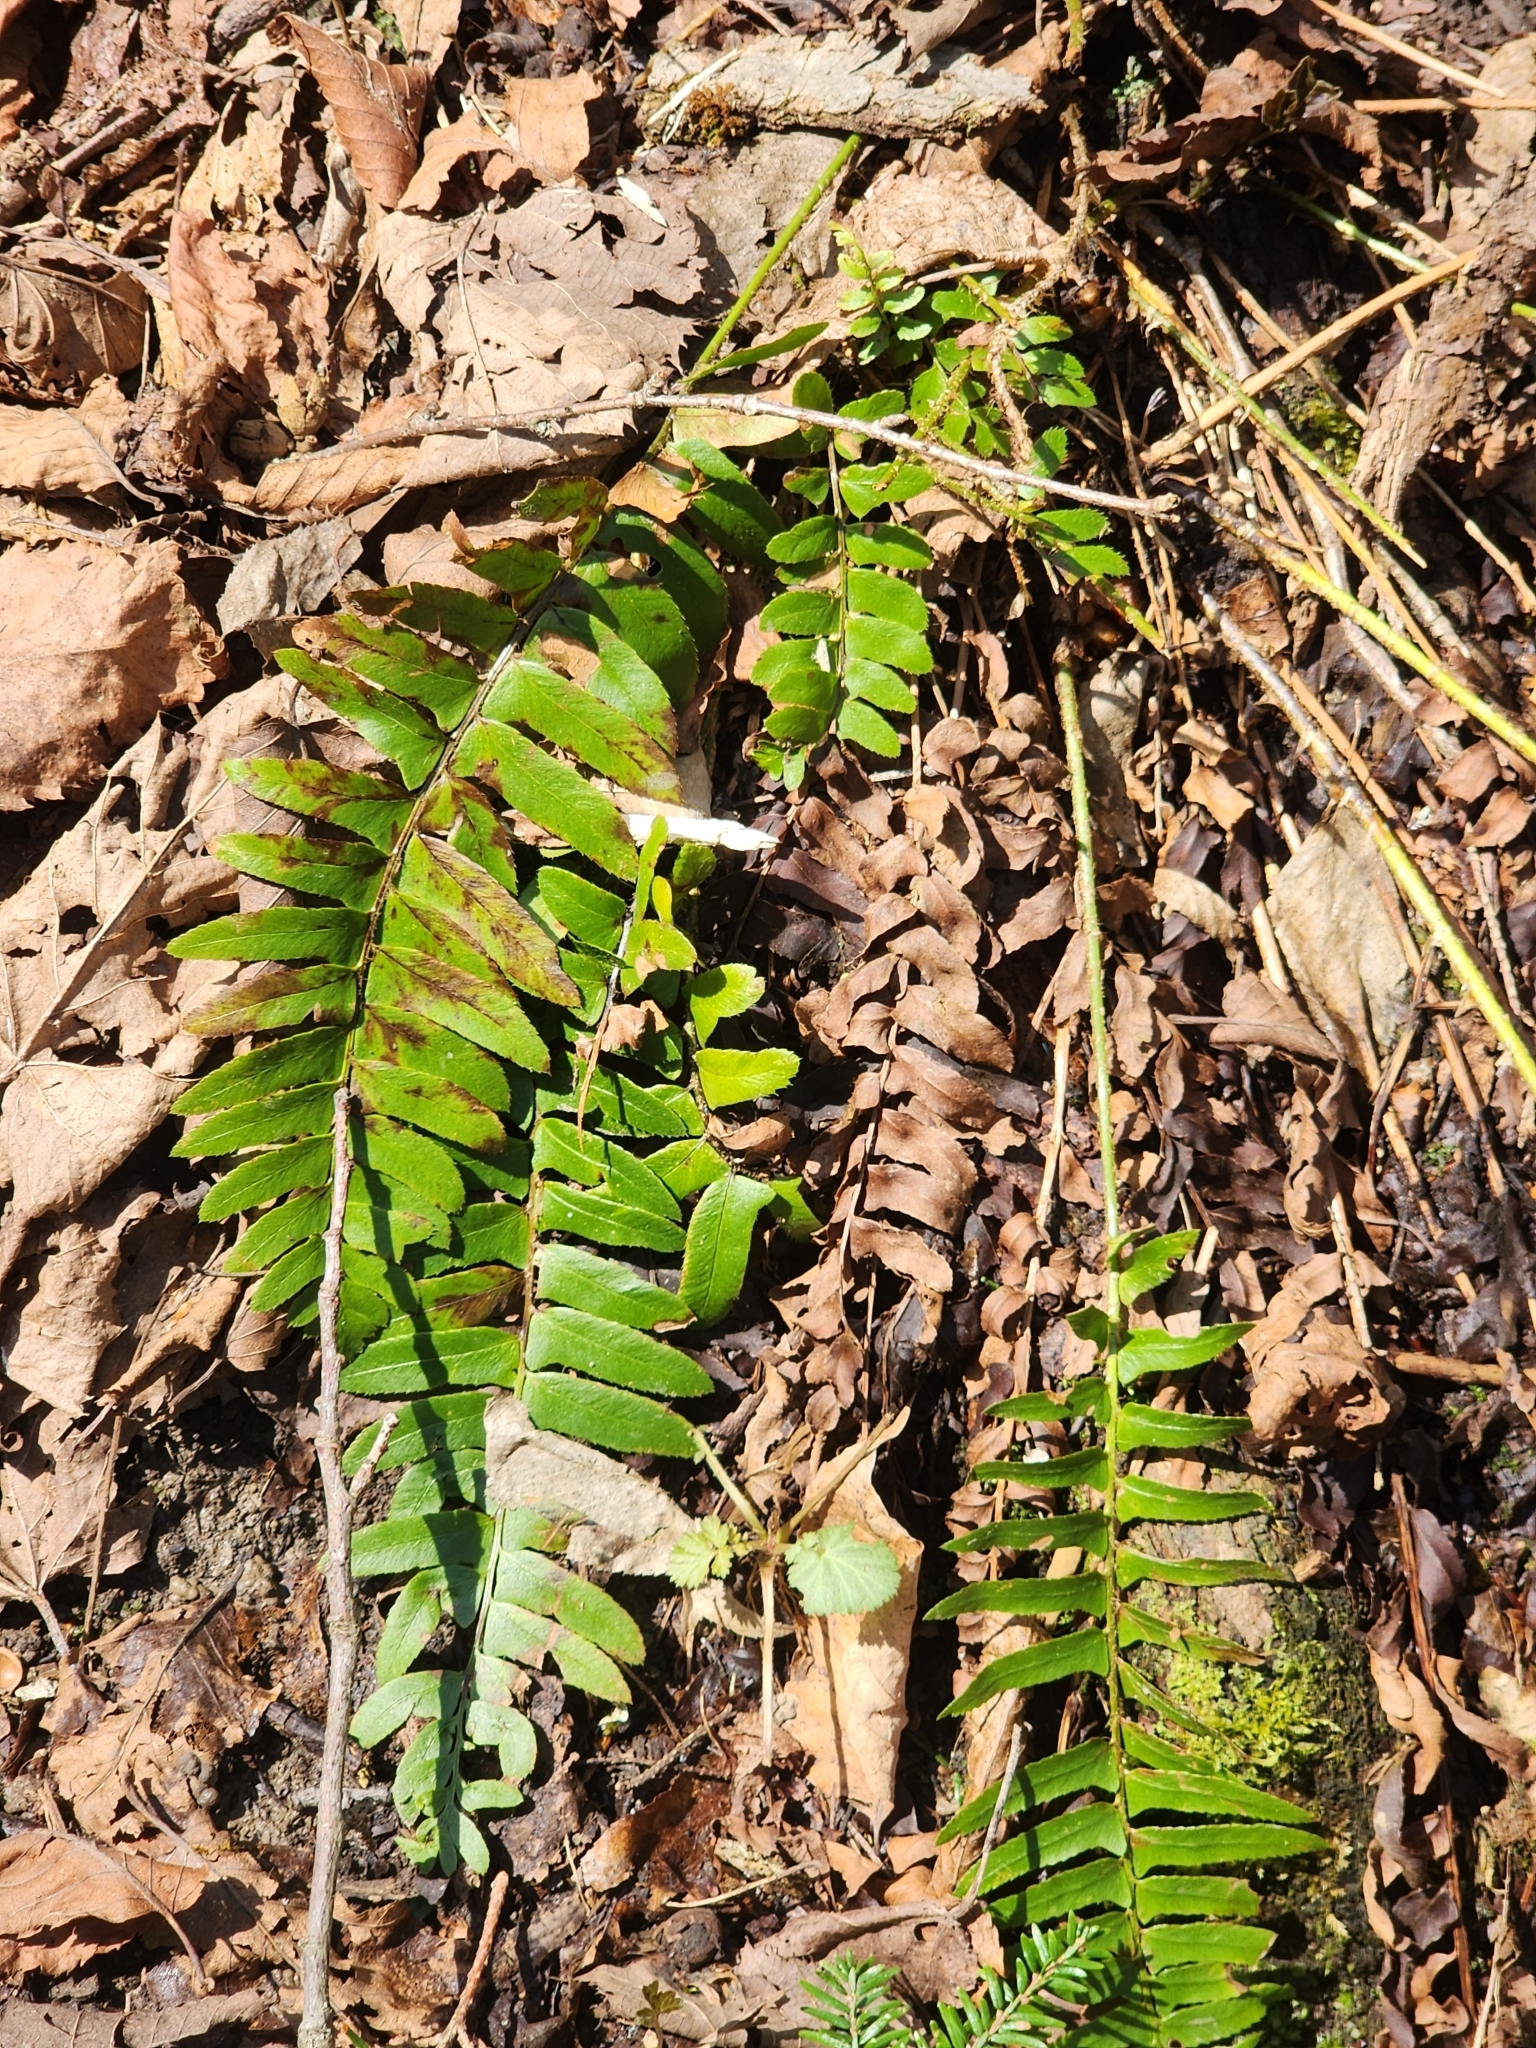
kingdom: Plantae
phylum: Tracheophyta
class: Polypodiopsida
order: Polypodiales
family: Dryopteridaceae
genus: Polystichum
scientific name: Polystichum acrostichoides
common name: Christmas fern
